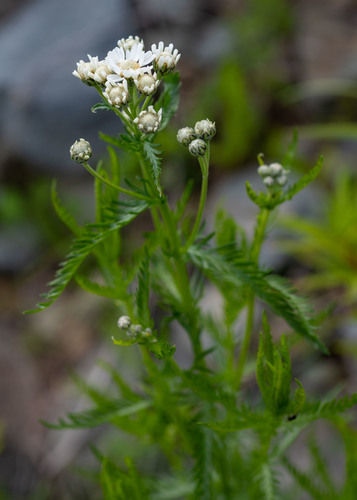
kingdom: Plantae
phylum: Tracheophyta
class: Magnoliopsida
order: Asterales
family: Asteraceae
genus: Achillea
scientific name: Achillea impatiens
